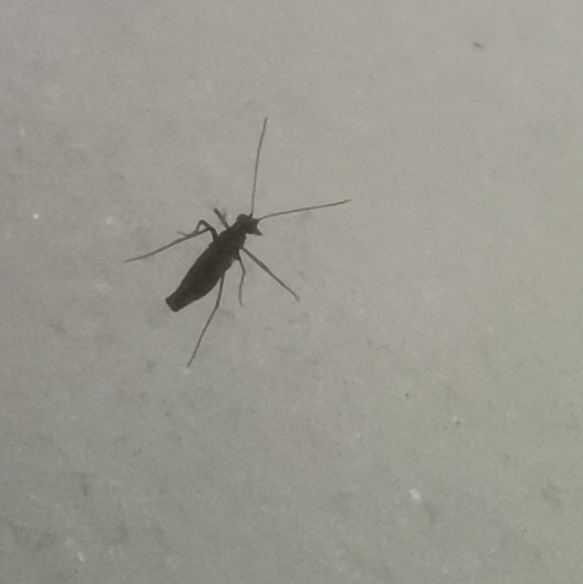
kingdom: Animalia
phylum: Arthropoda
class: Insecta
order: Mecoptera
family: Boreidae
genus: Boreus
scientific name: Boreus westwoodi
